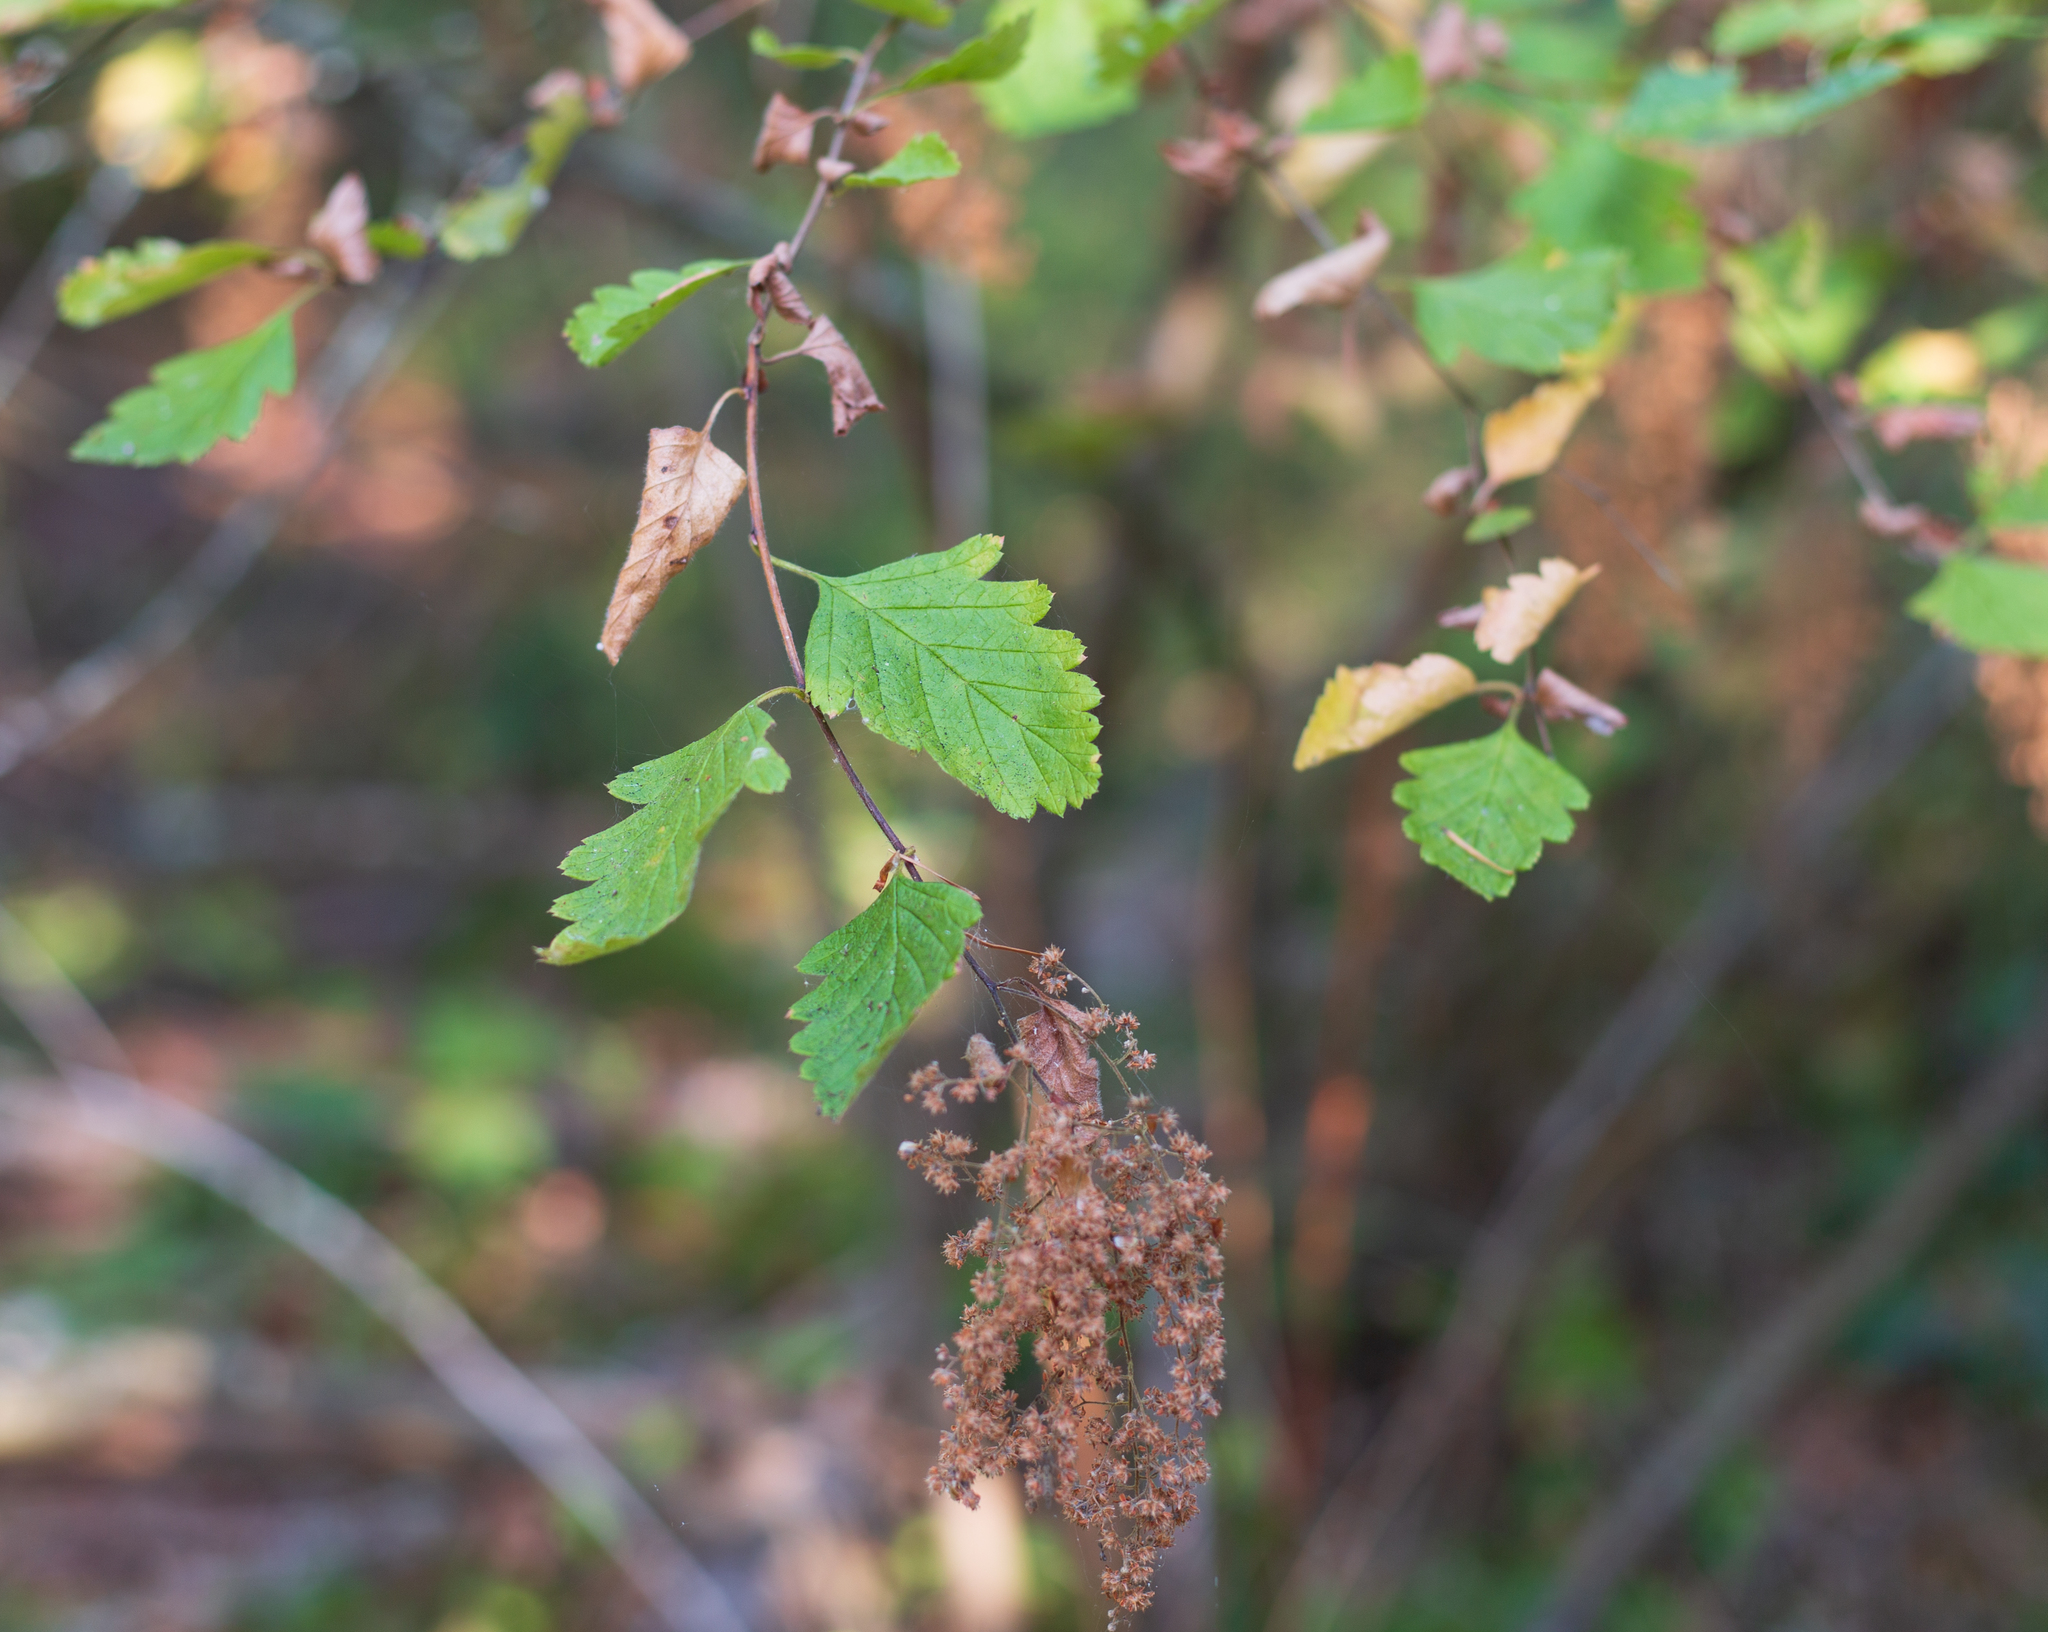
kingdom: Plantae
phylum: Tracheophyta
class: Magnoliopsida
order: Rosales
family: Rosaceae
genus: Holodiscus
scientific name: Holodiscus discolor
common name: Oceanspray
